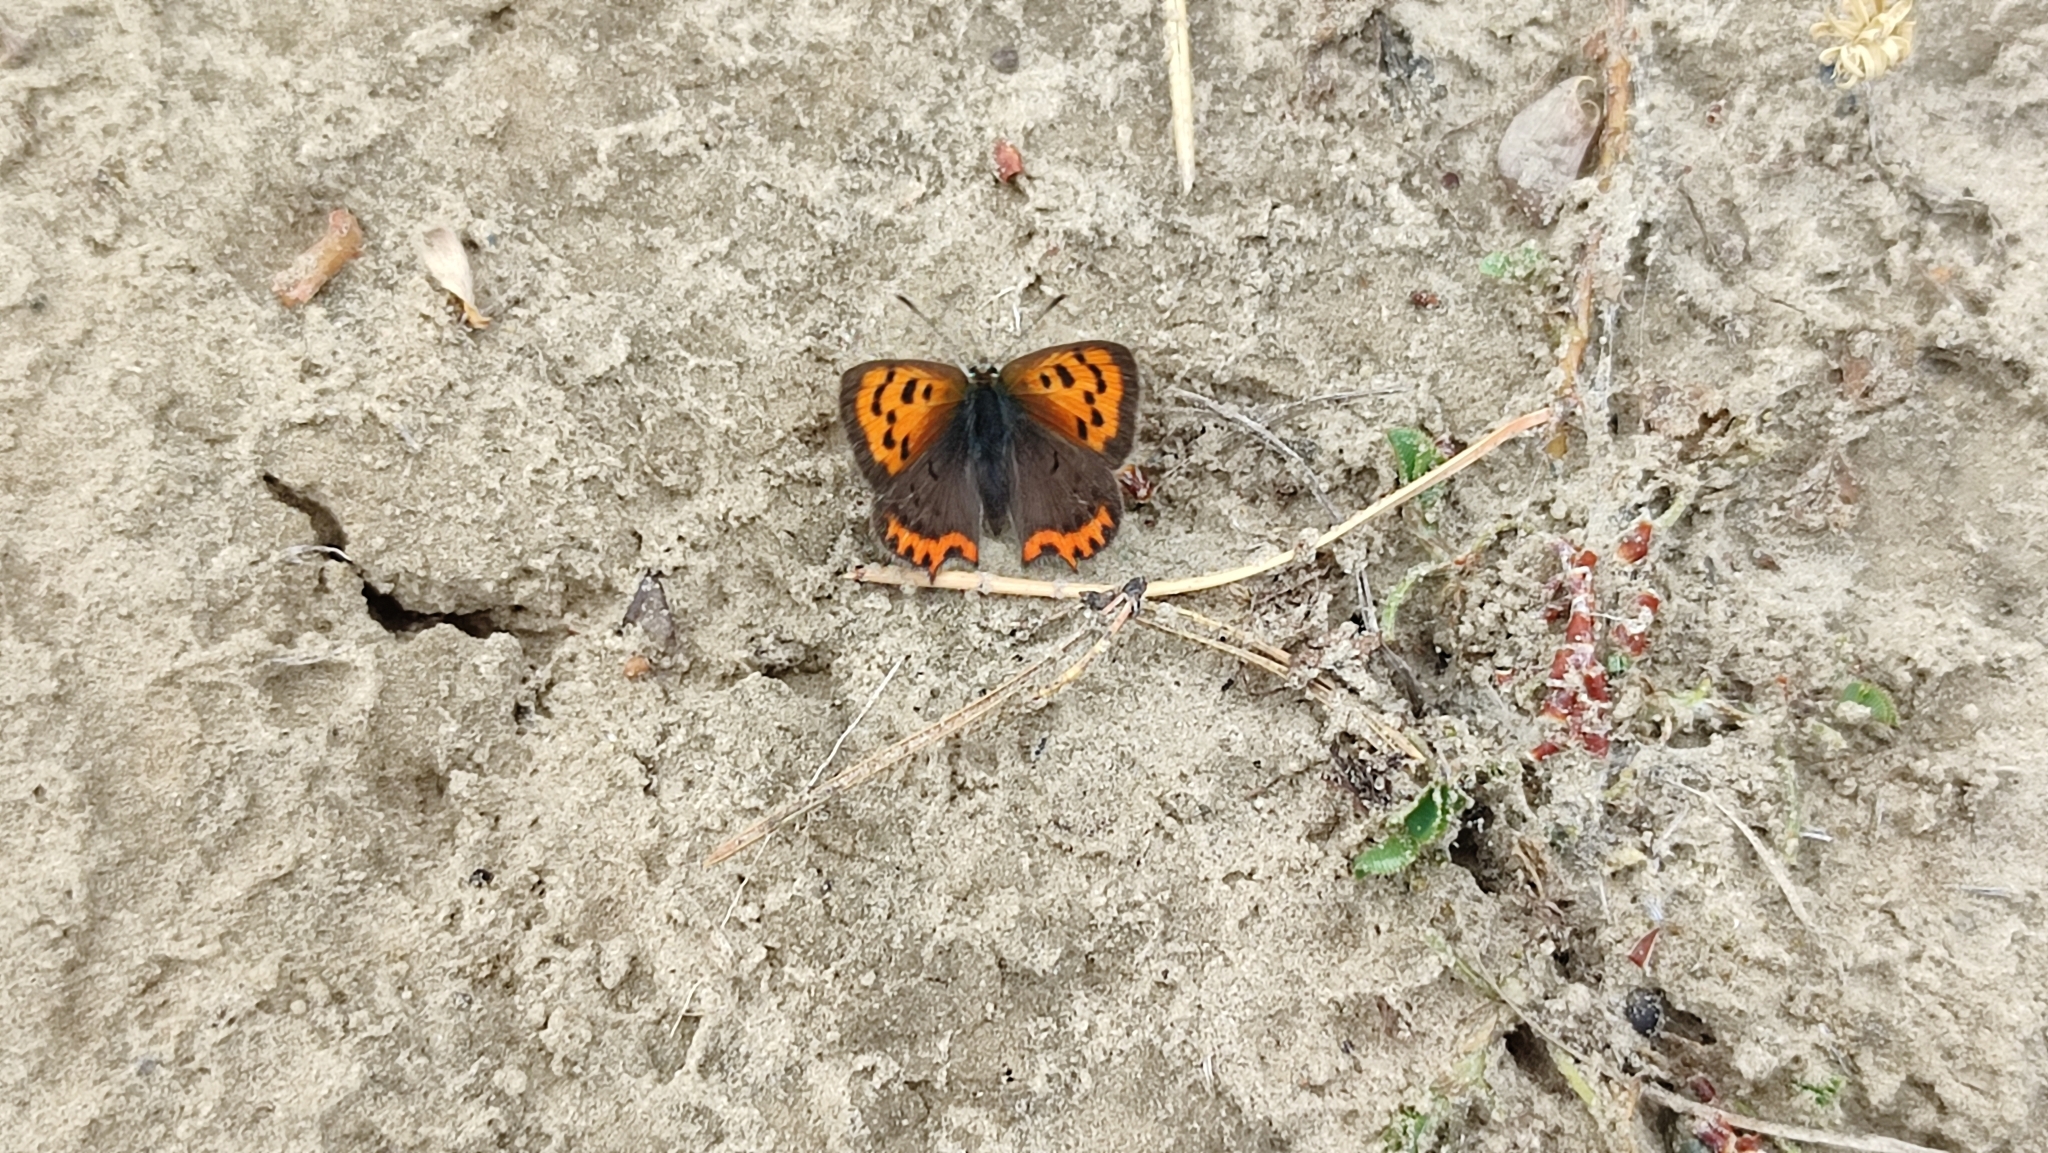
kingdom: Animalia
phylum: Arthropoda
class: Insecta
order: Lepidoptera
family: Lycaenidae
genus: Lycaena
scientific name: Lycaena phlaeas
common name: Small copper
